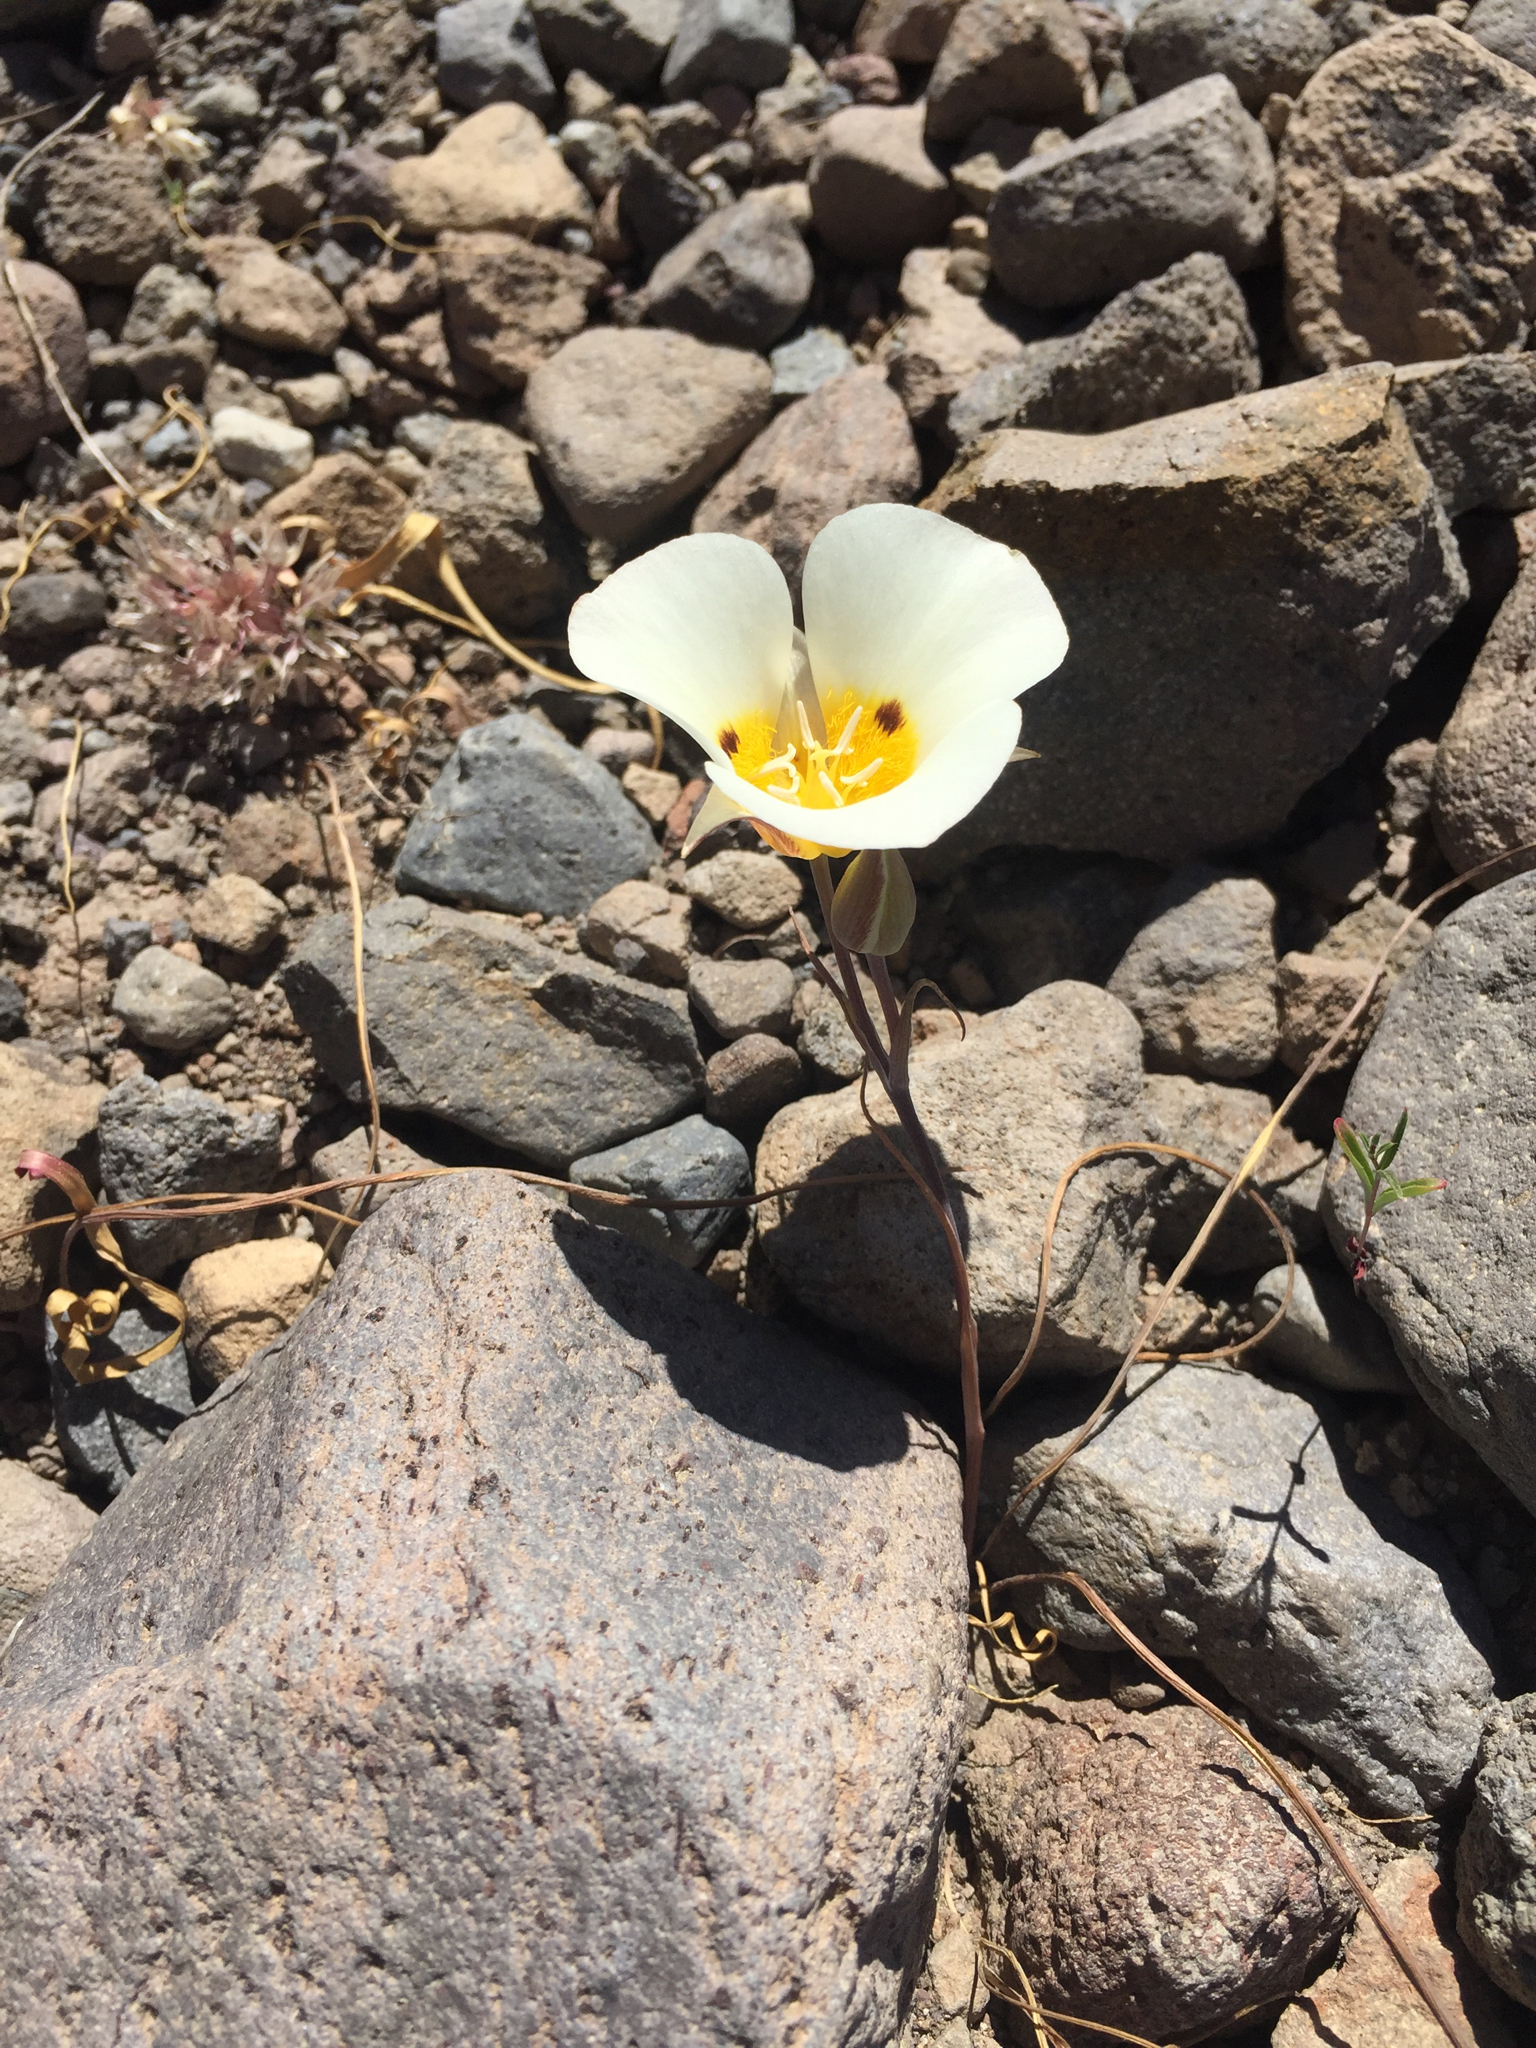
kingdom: Plantae
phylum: Tracheophyta
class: Liliopsida
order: Liliales
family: Liliaceae
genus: Calochortus
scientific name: Calochortus leichtlinii
